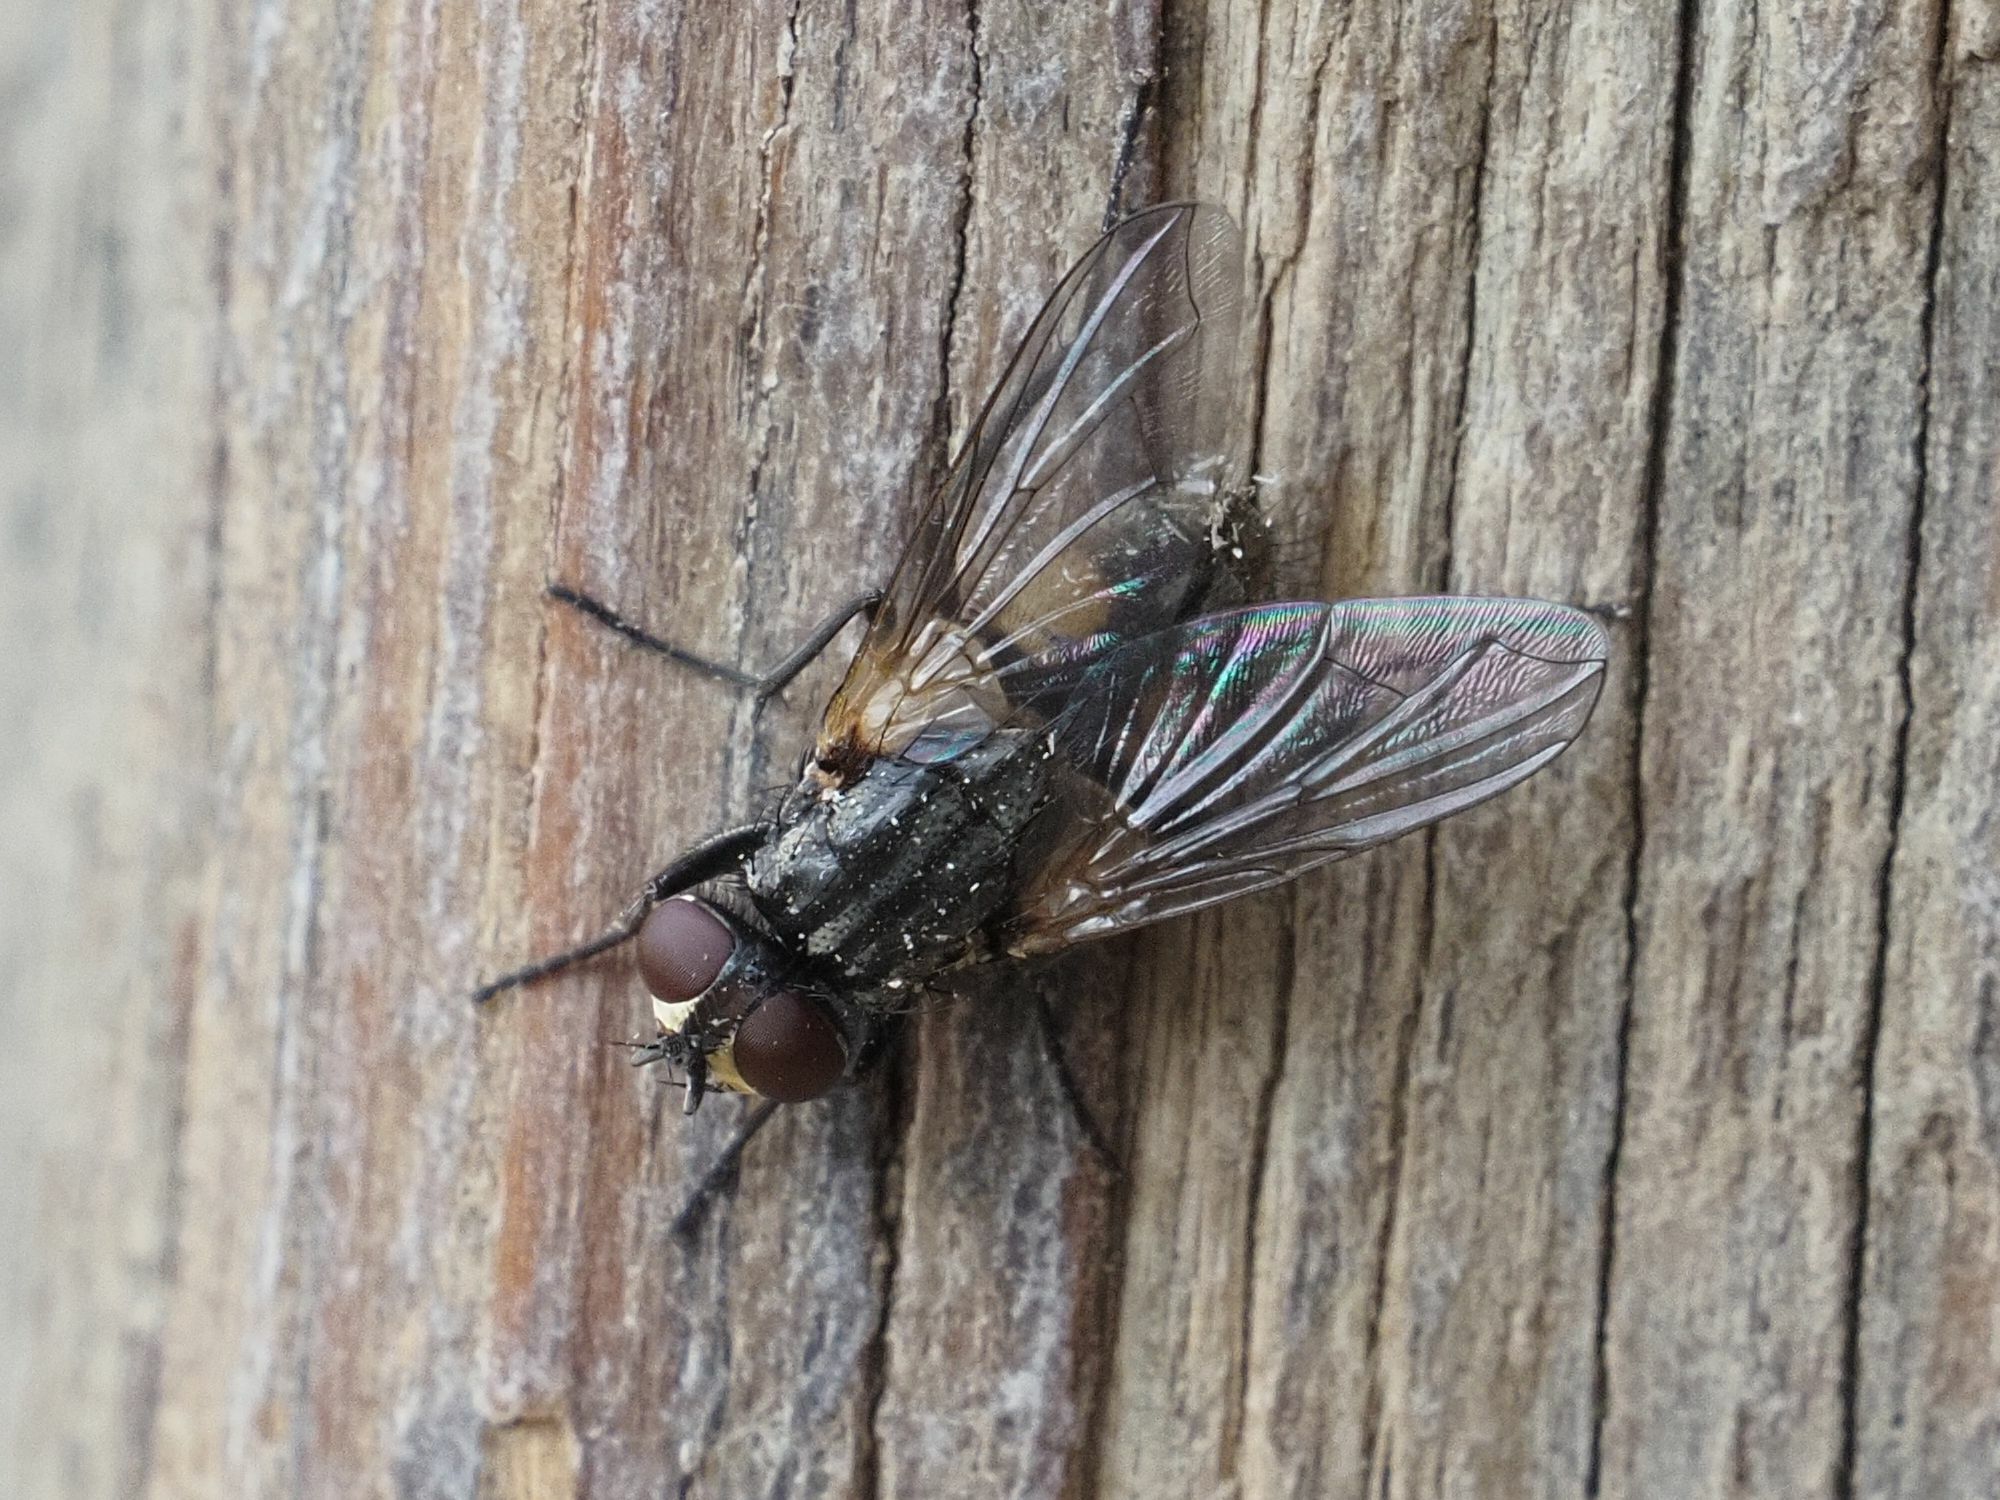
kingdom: Animalia
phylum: Arthropoda
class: Insecta
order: Diptera
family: Muscidae
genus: Musca
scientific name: Musca domestica
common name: House fly
